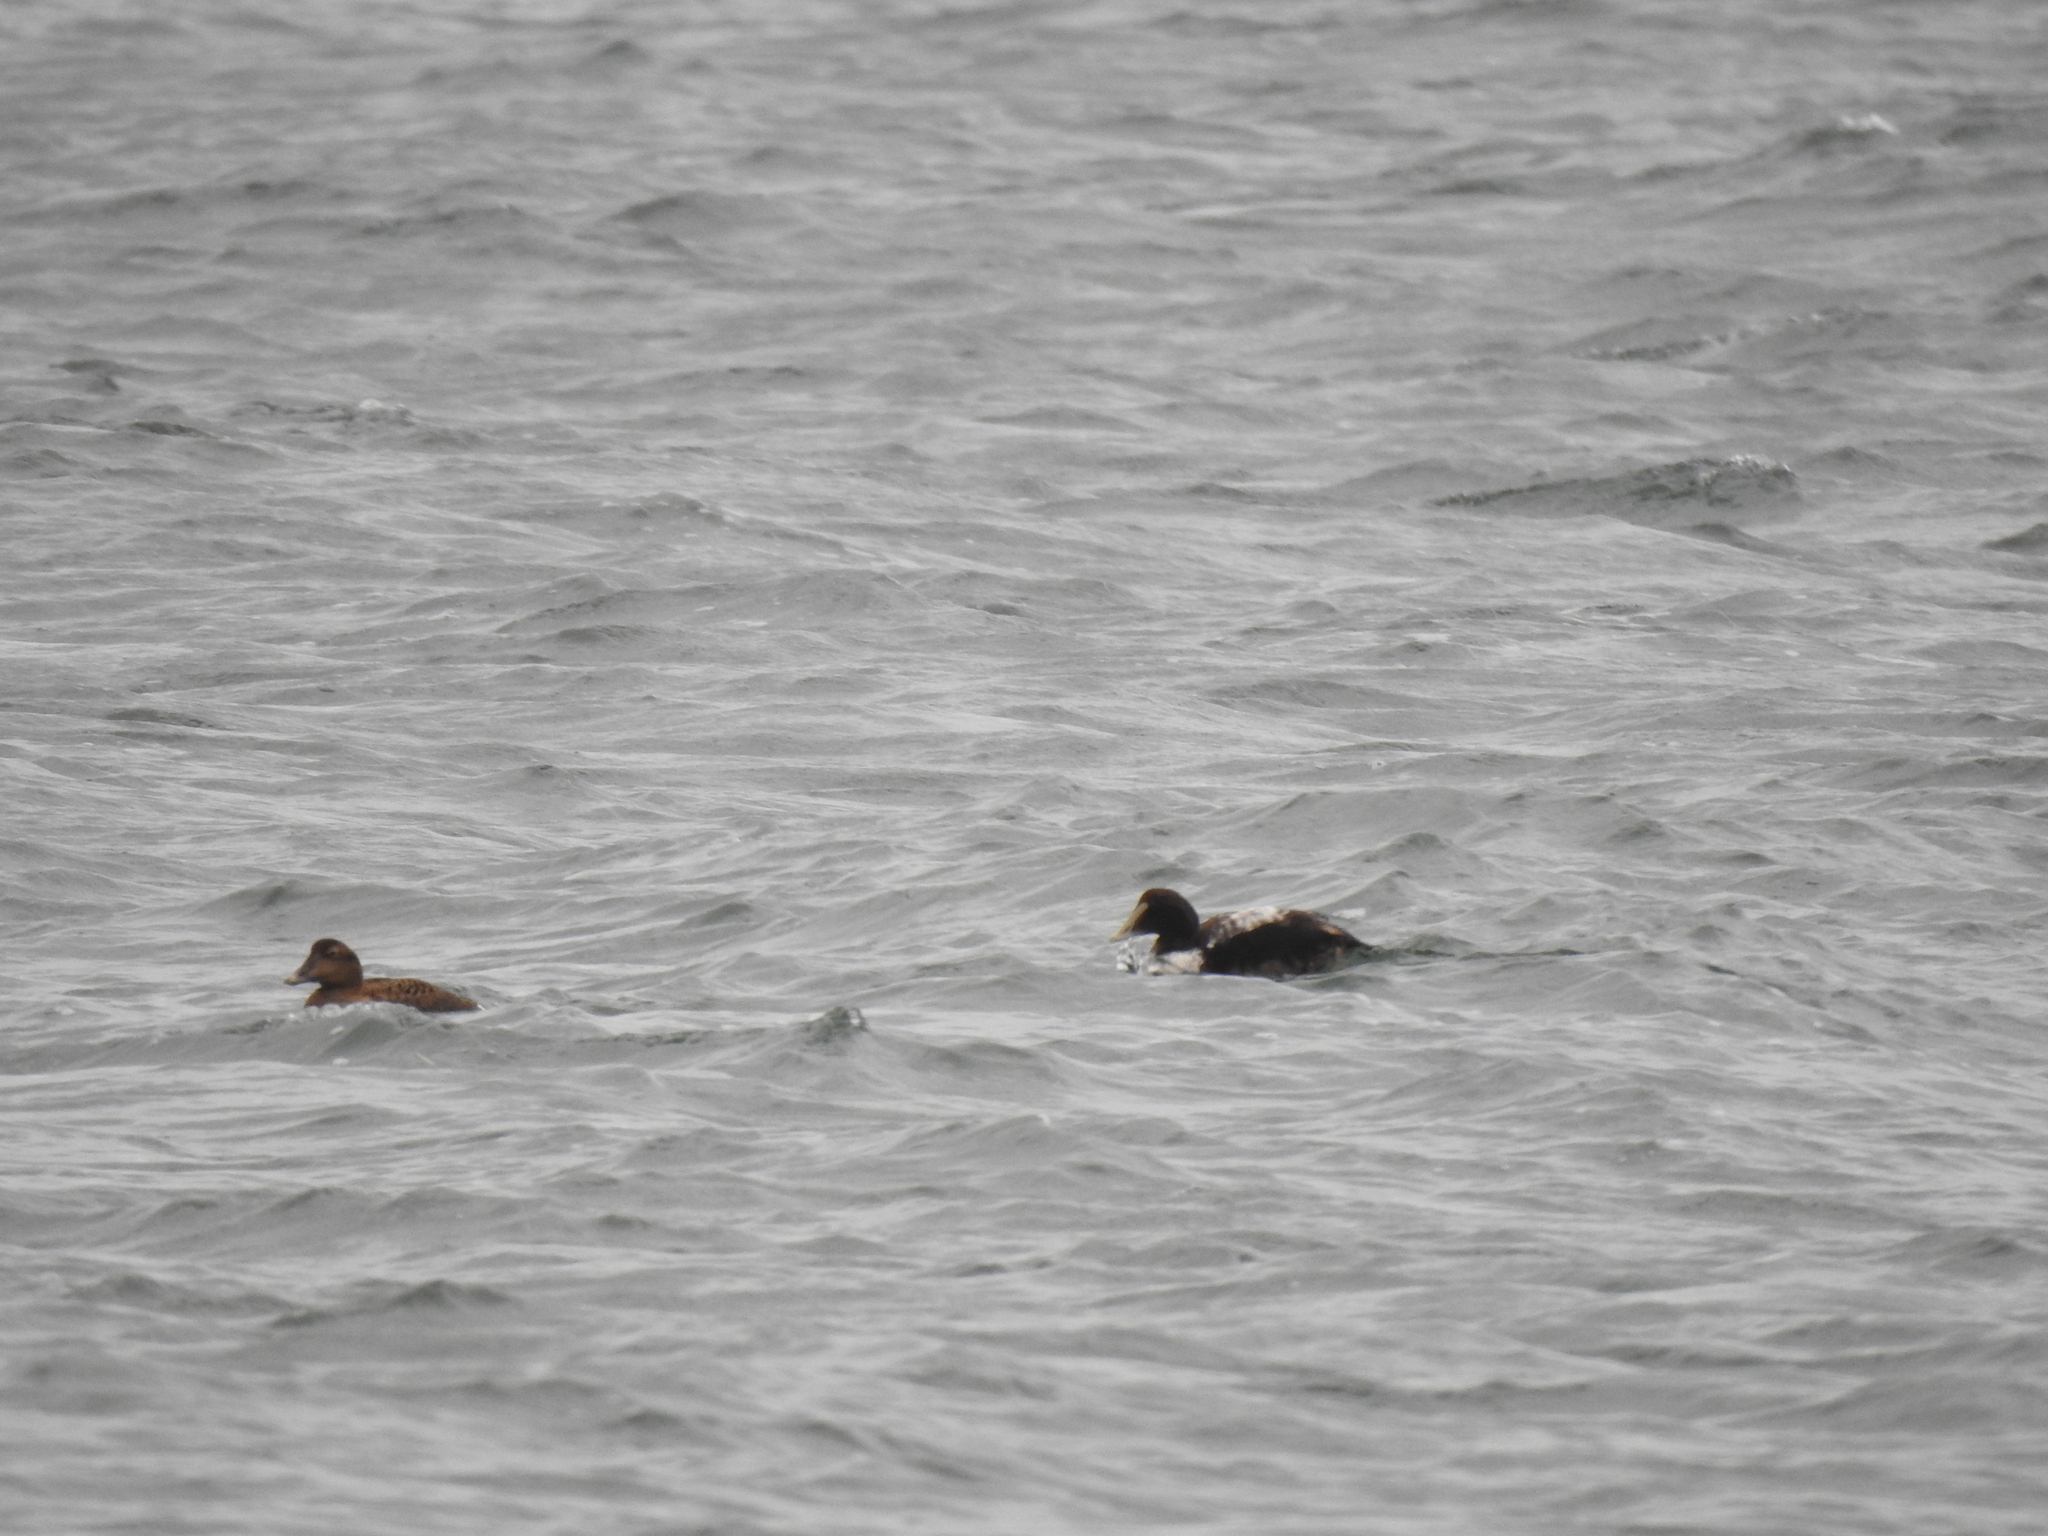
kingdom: Animalia
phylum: Chordata
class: Aves
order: Anseriformes
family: Anatidae
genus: Somateria
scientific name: Somateria mollissima
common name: Common eider
